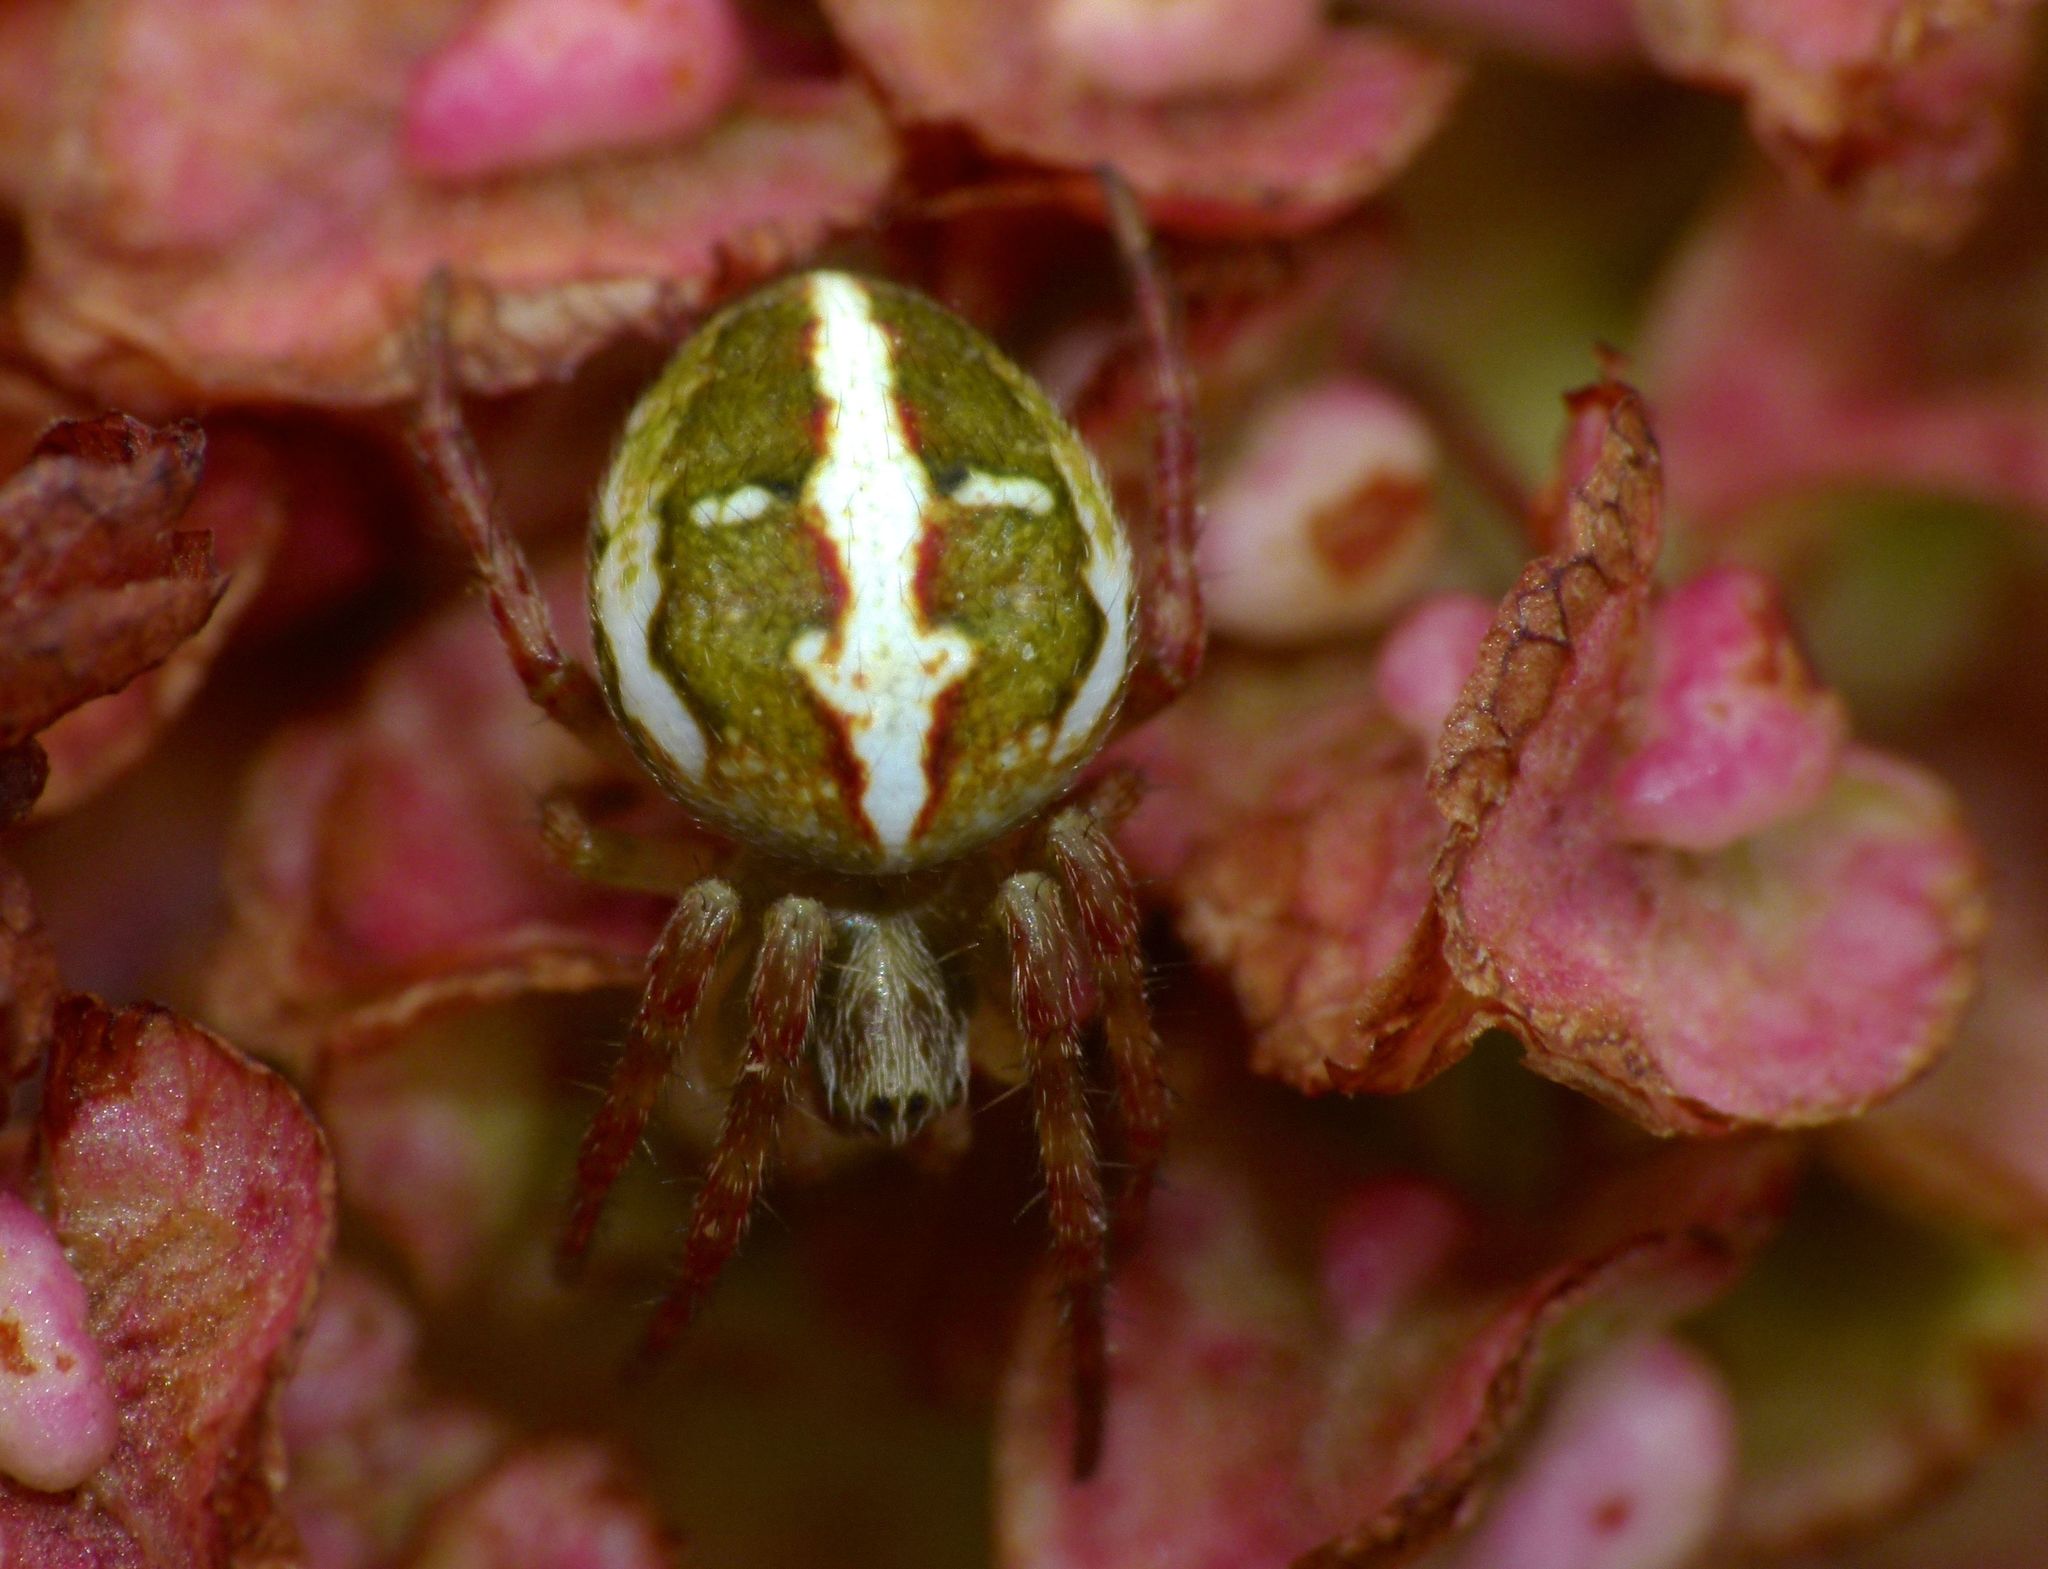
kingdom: Animalia
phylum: Arthropoda
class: Arachnida
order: Araneae
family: Araneidae
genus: Colaranea
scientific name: Colaranea verutum
